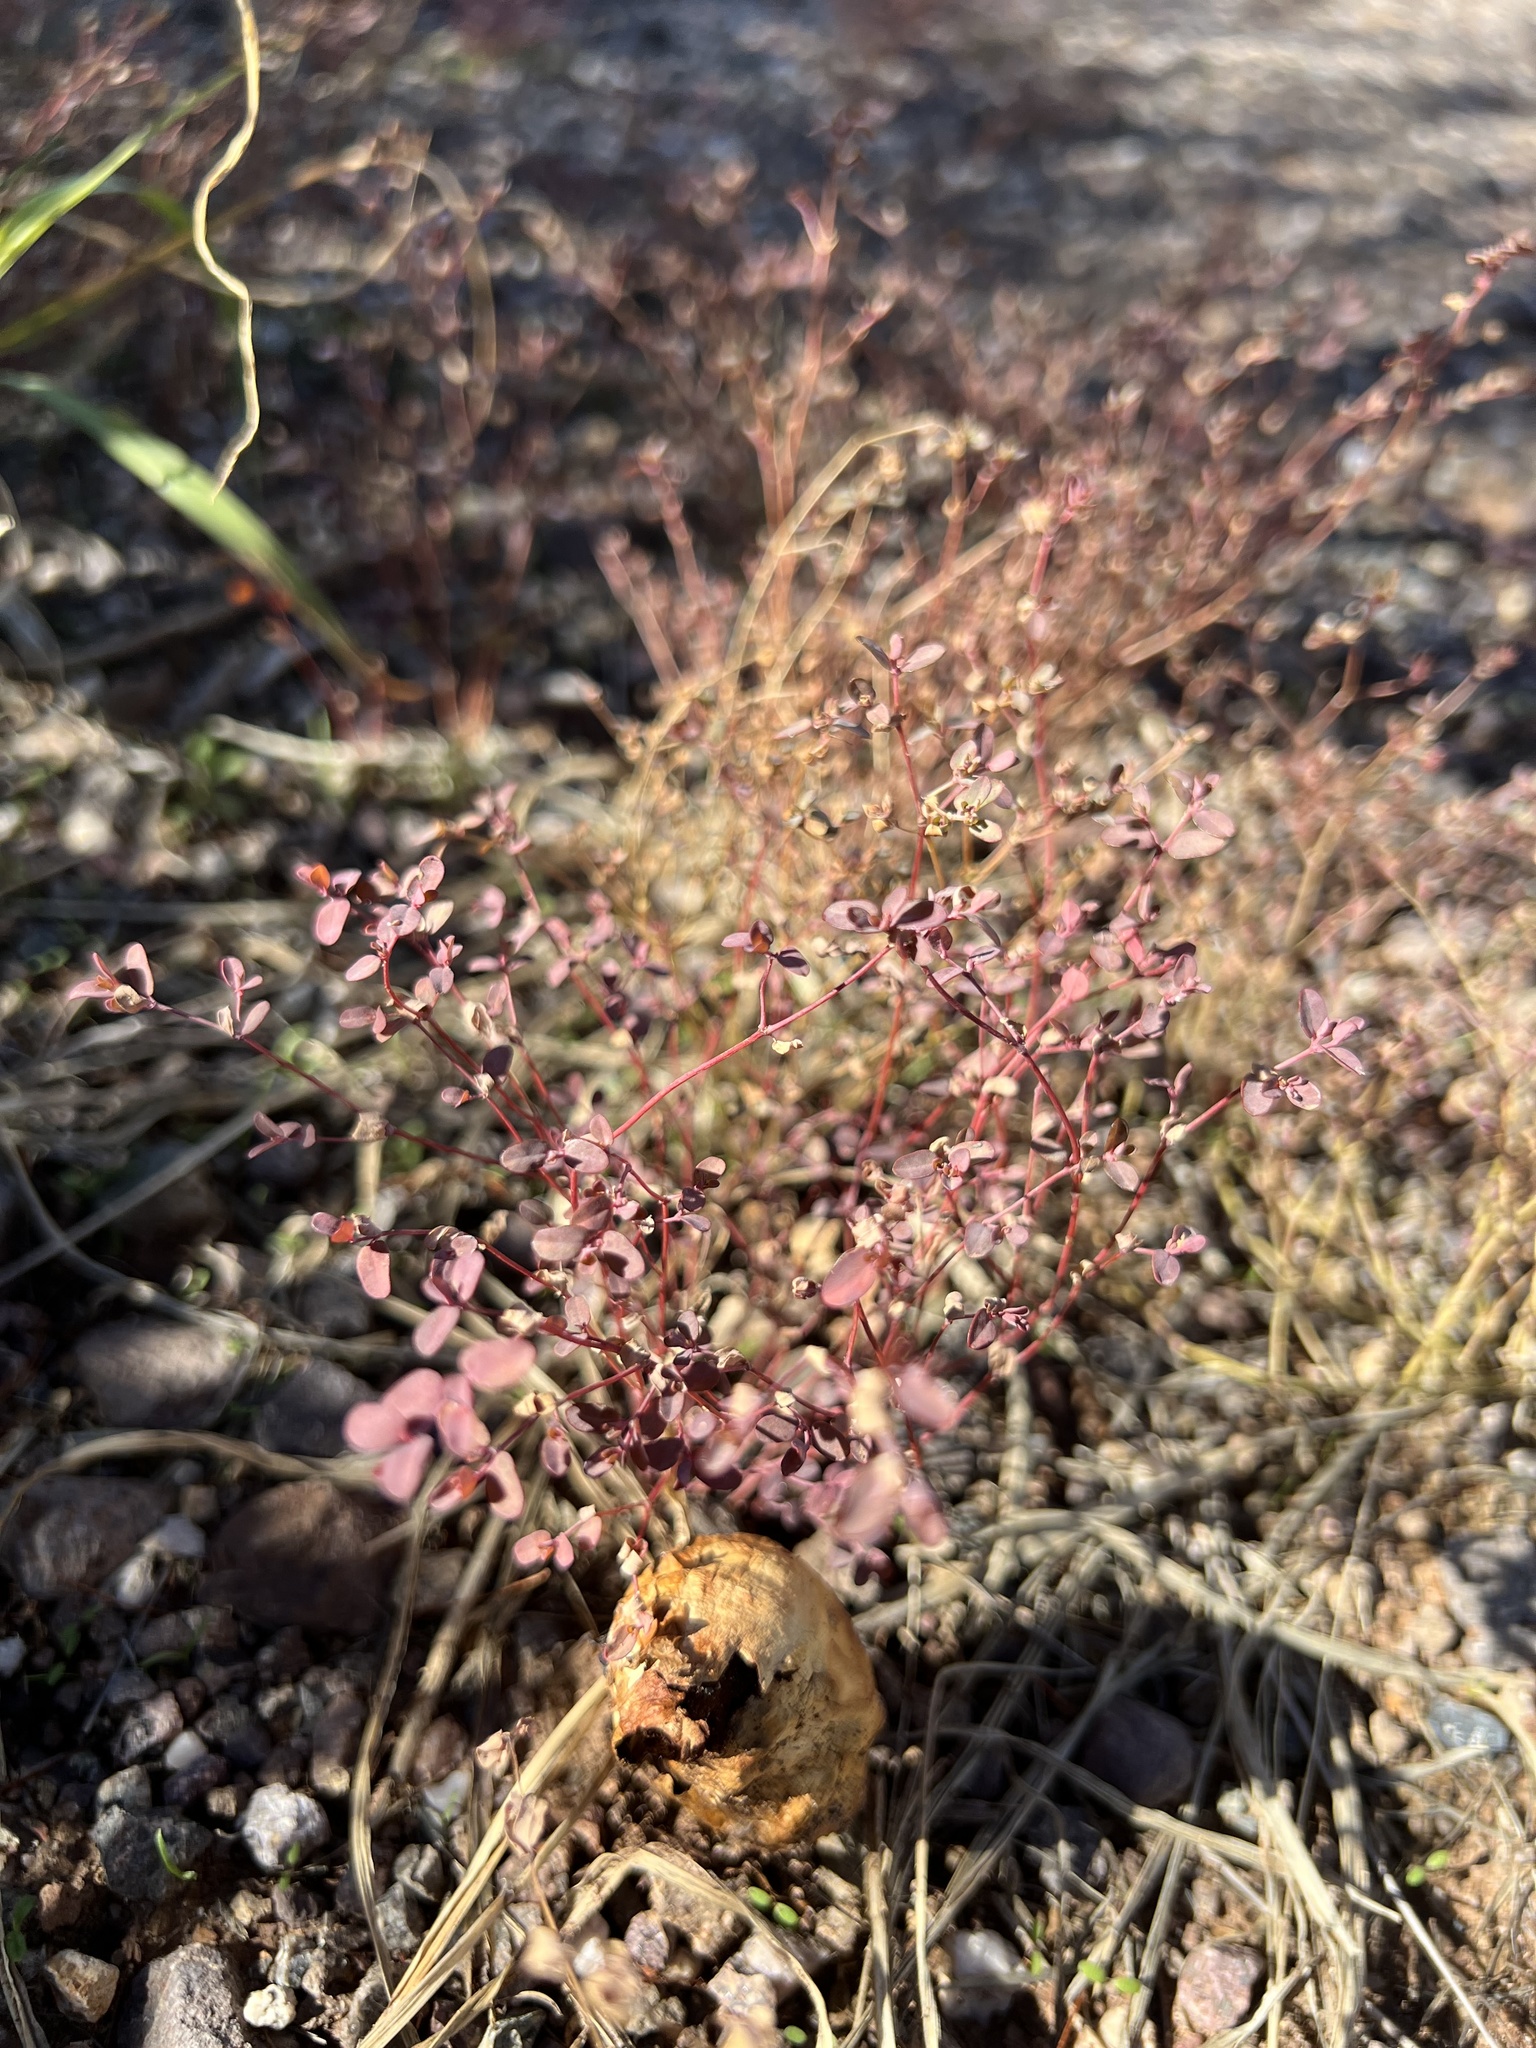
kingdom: Plantae
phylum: Tracheophyta
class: Magnoliopsida
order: Malpighiales
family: Euphorbiaceae
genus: Euphorbia
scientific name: Euphorbia polycarpa
